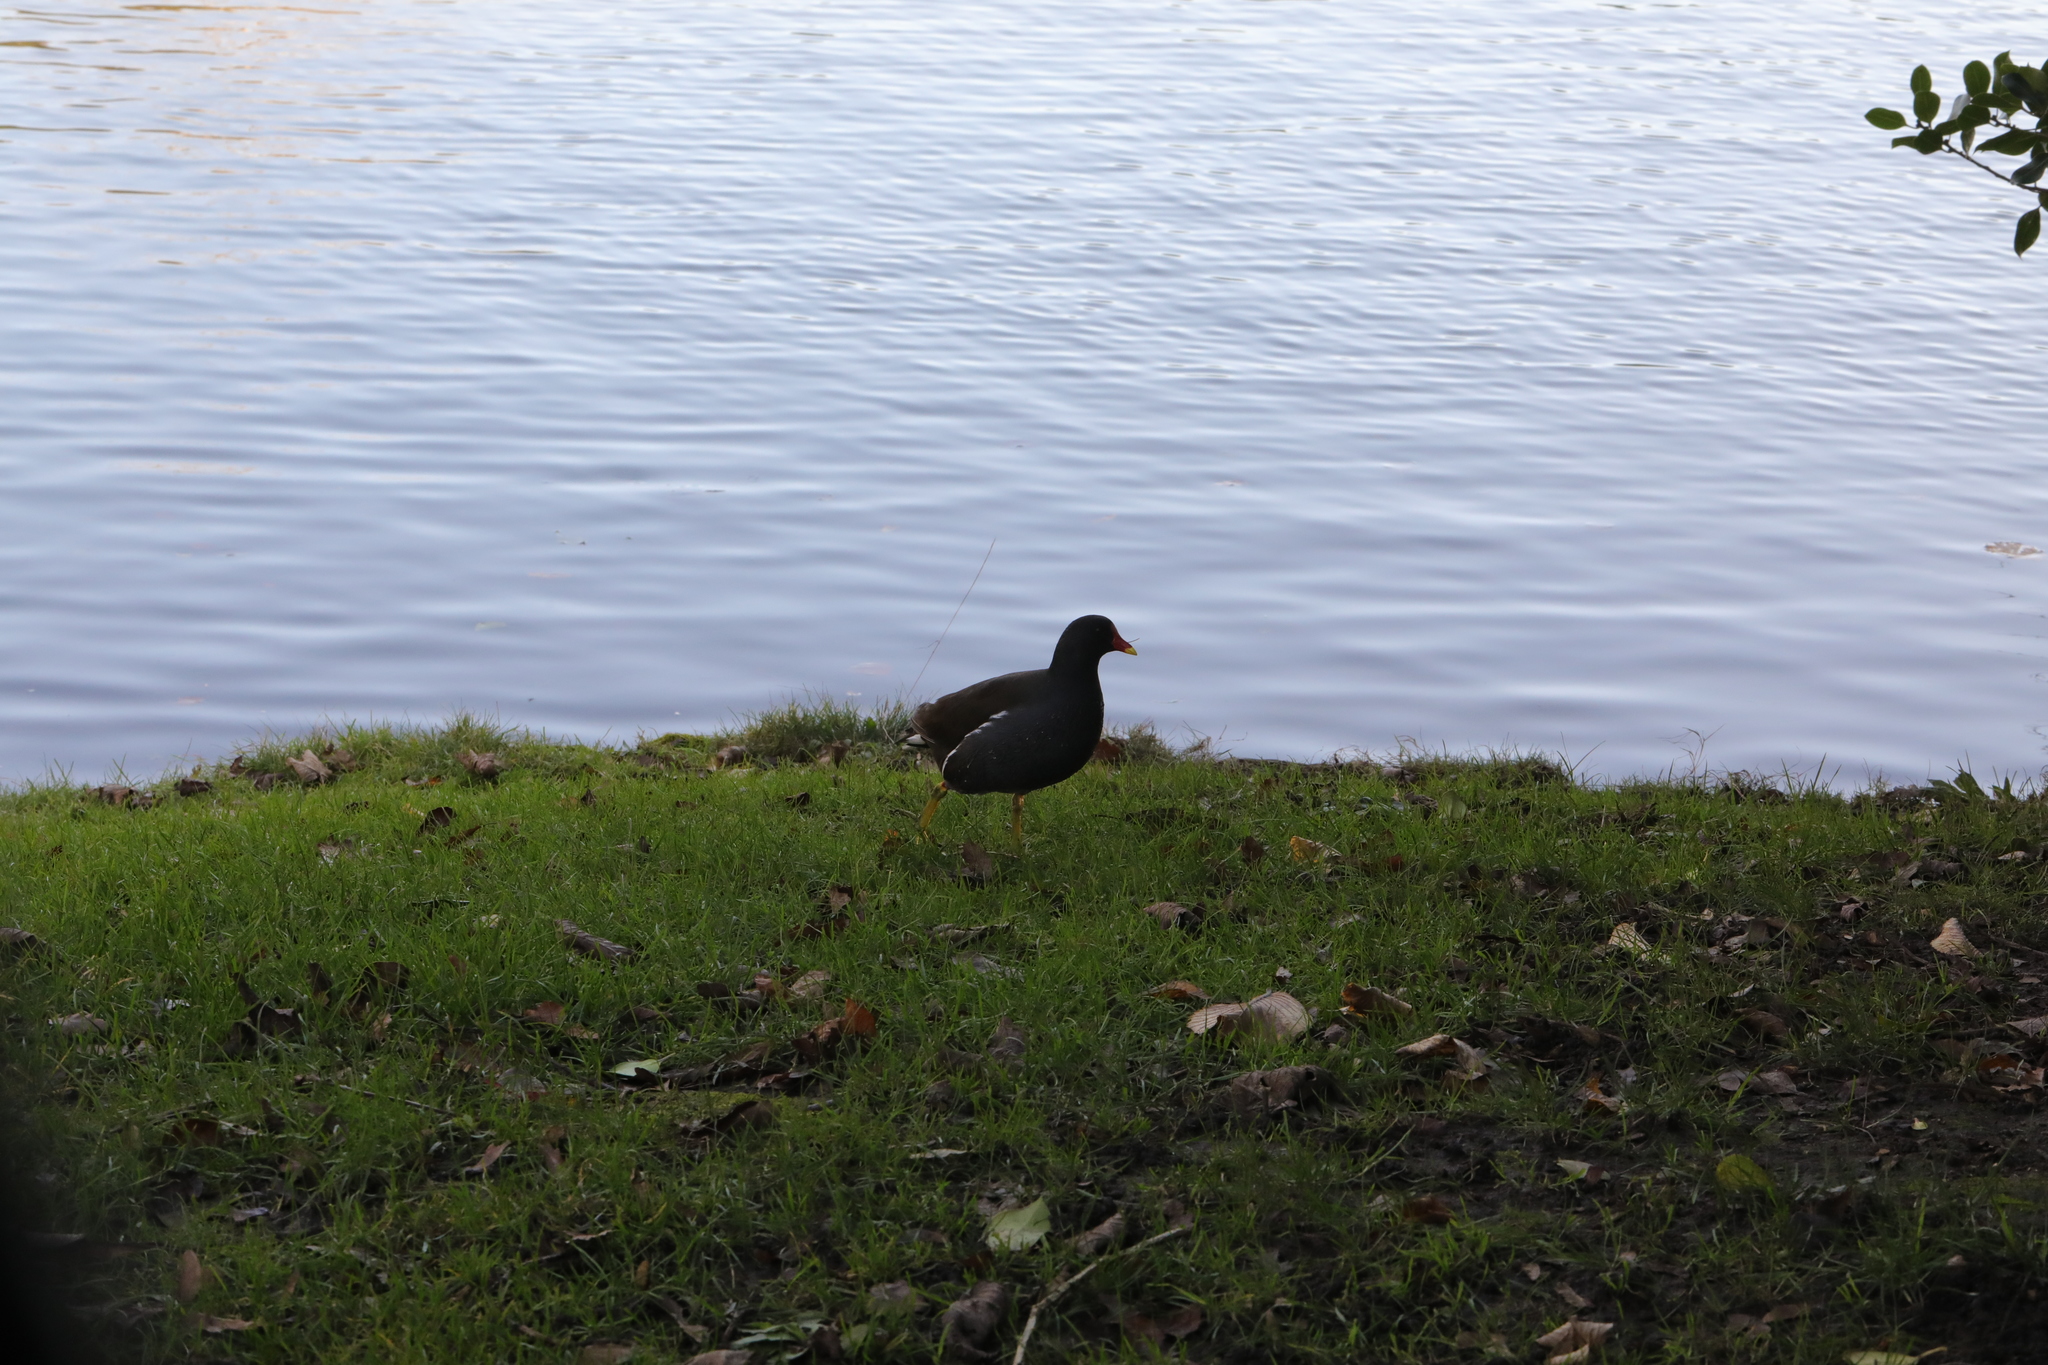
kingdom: Animalia
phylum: Chordata
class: Aves
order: Gruiformes
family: Rallidae
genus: Gallinula
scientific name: Gallinula chloropus
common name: Common moorhen
